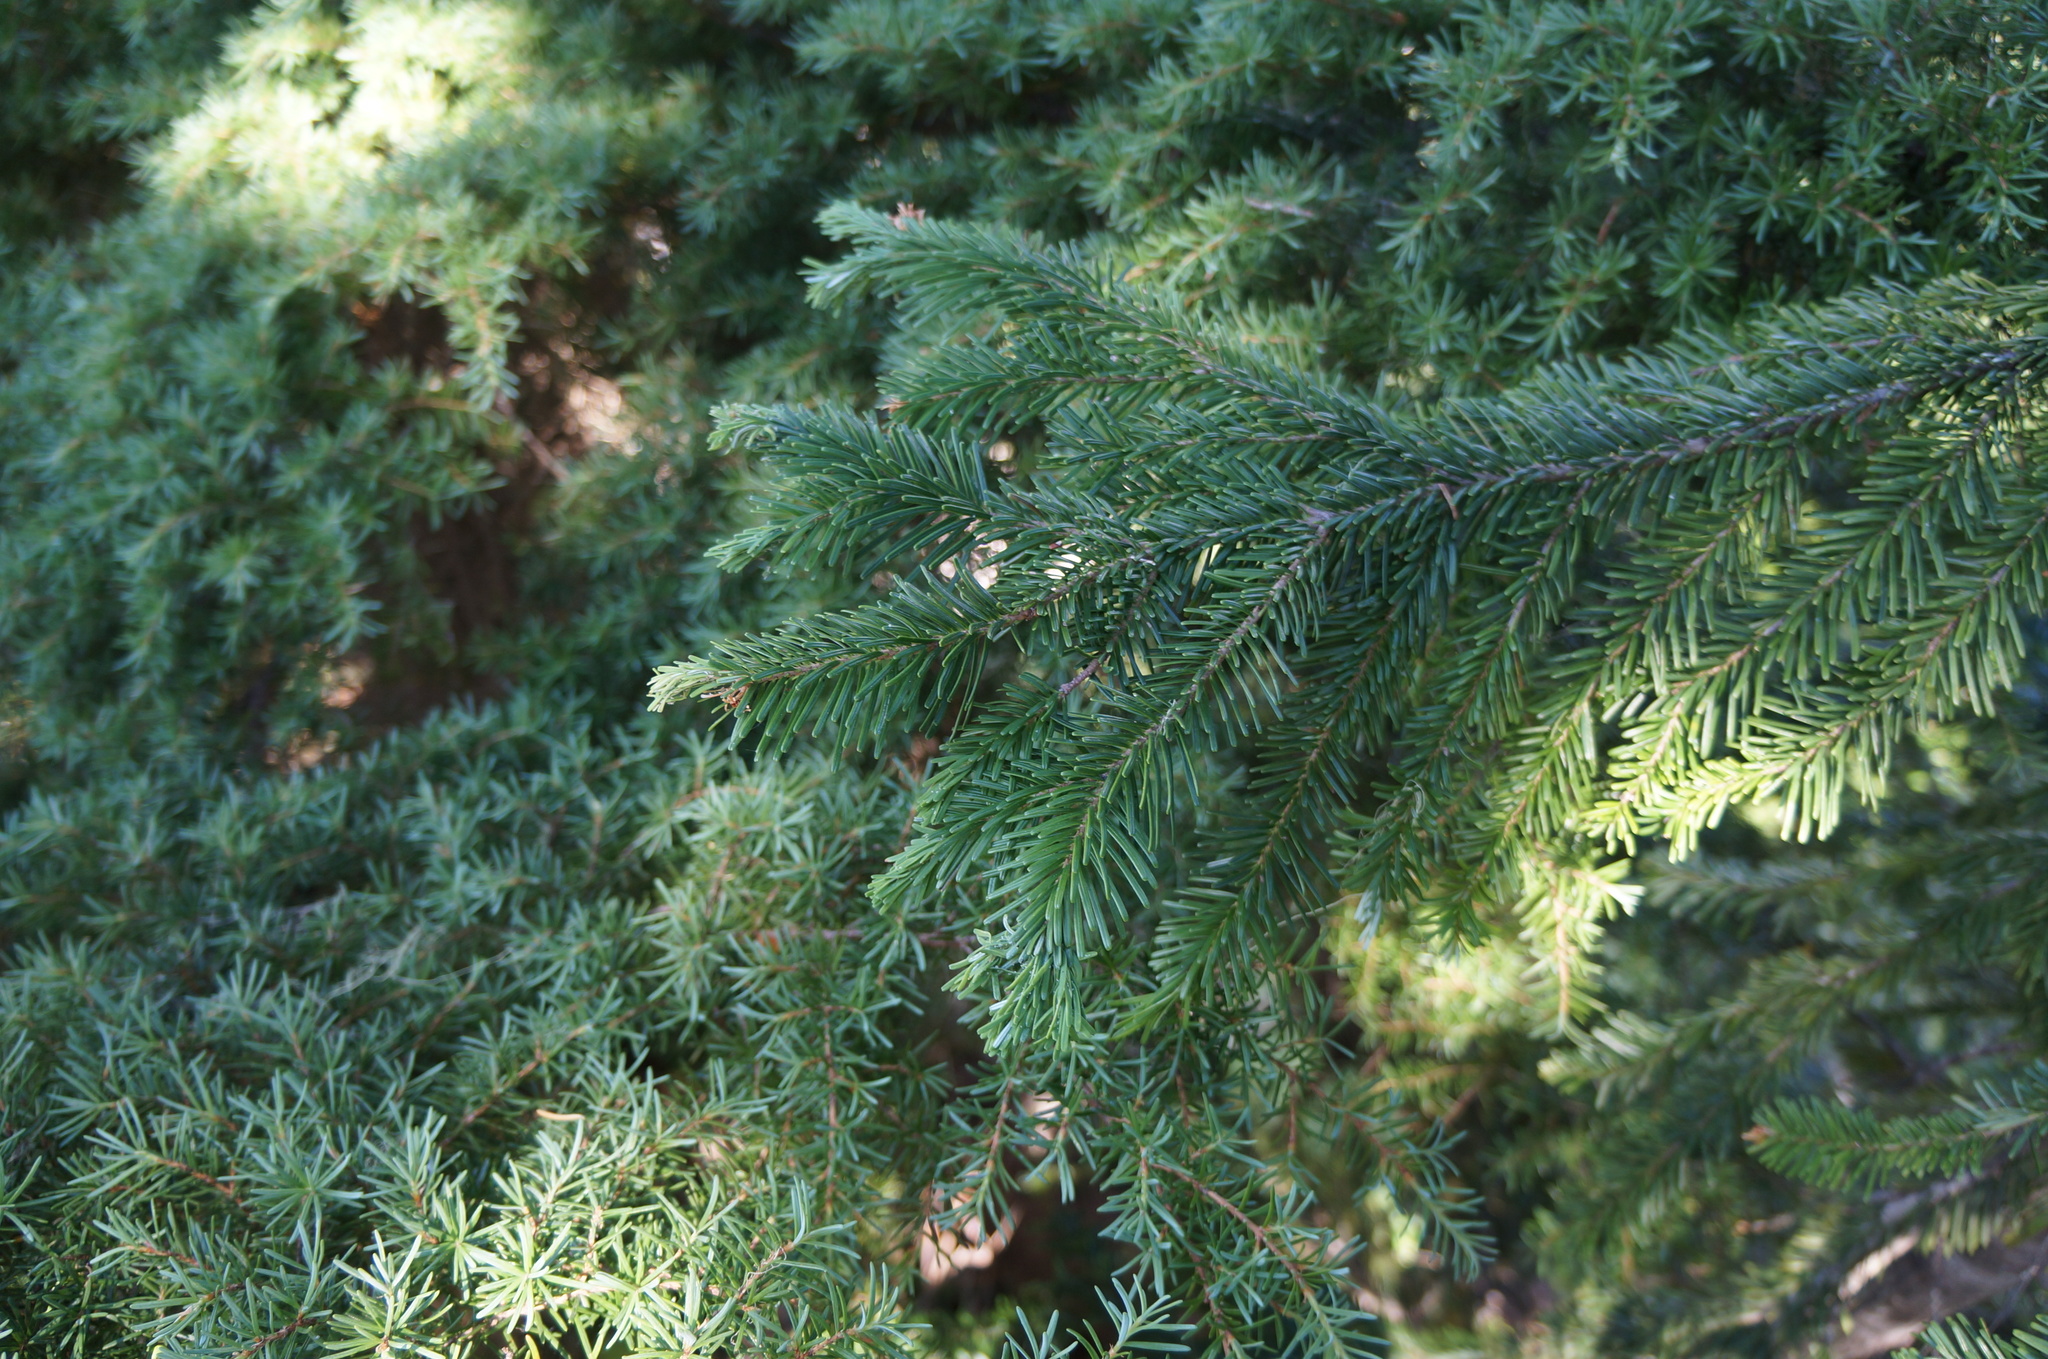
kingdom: Plantae
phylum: Tracheophyta
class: Pinopsida
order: Pinales
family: Pinaceae
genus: Abies
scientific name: Abies amabilis
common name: Pacific silver fir
